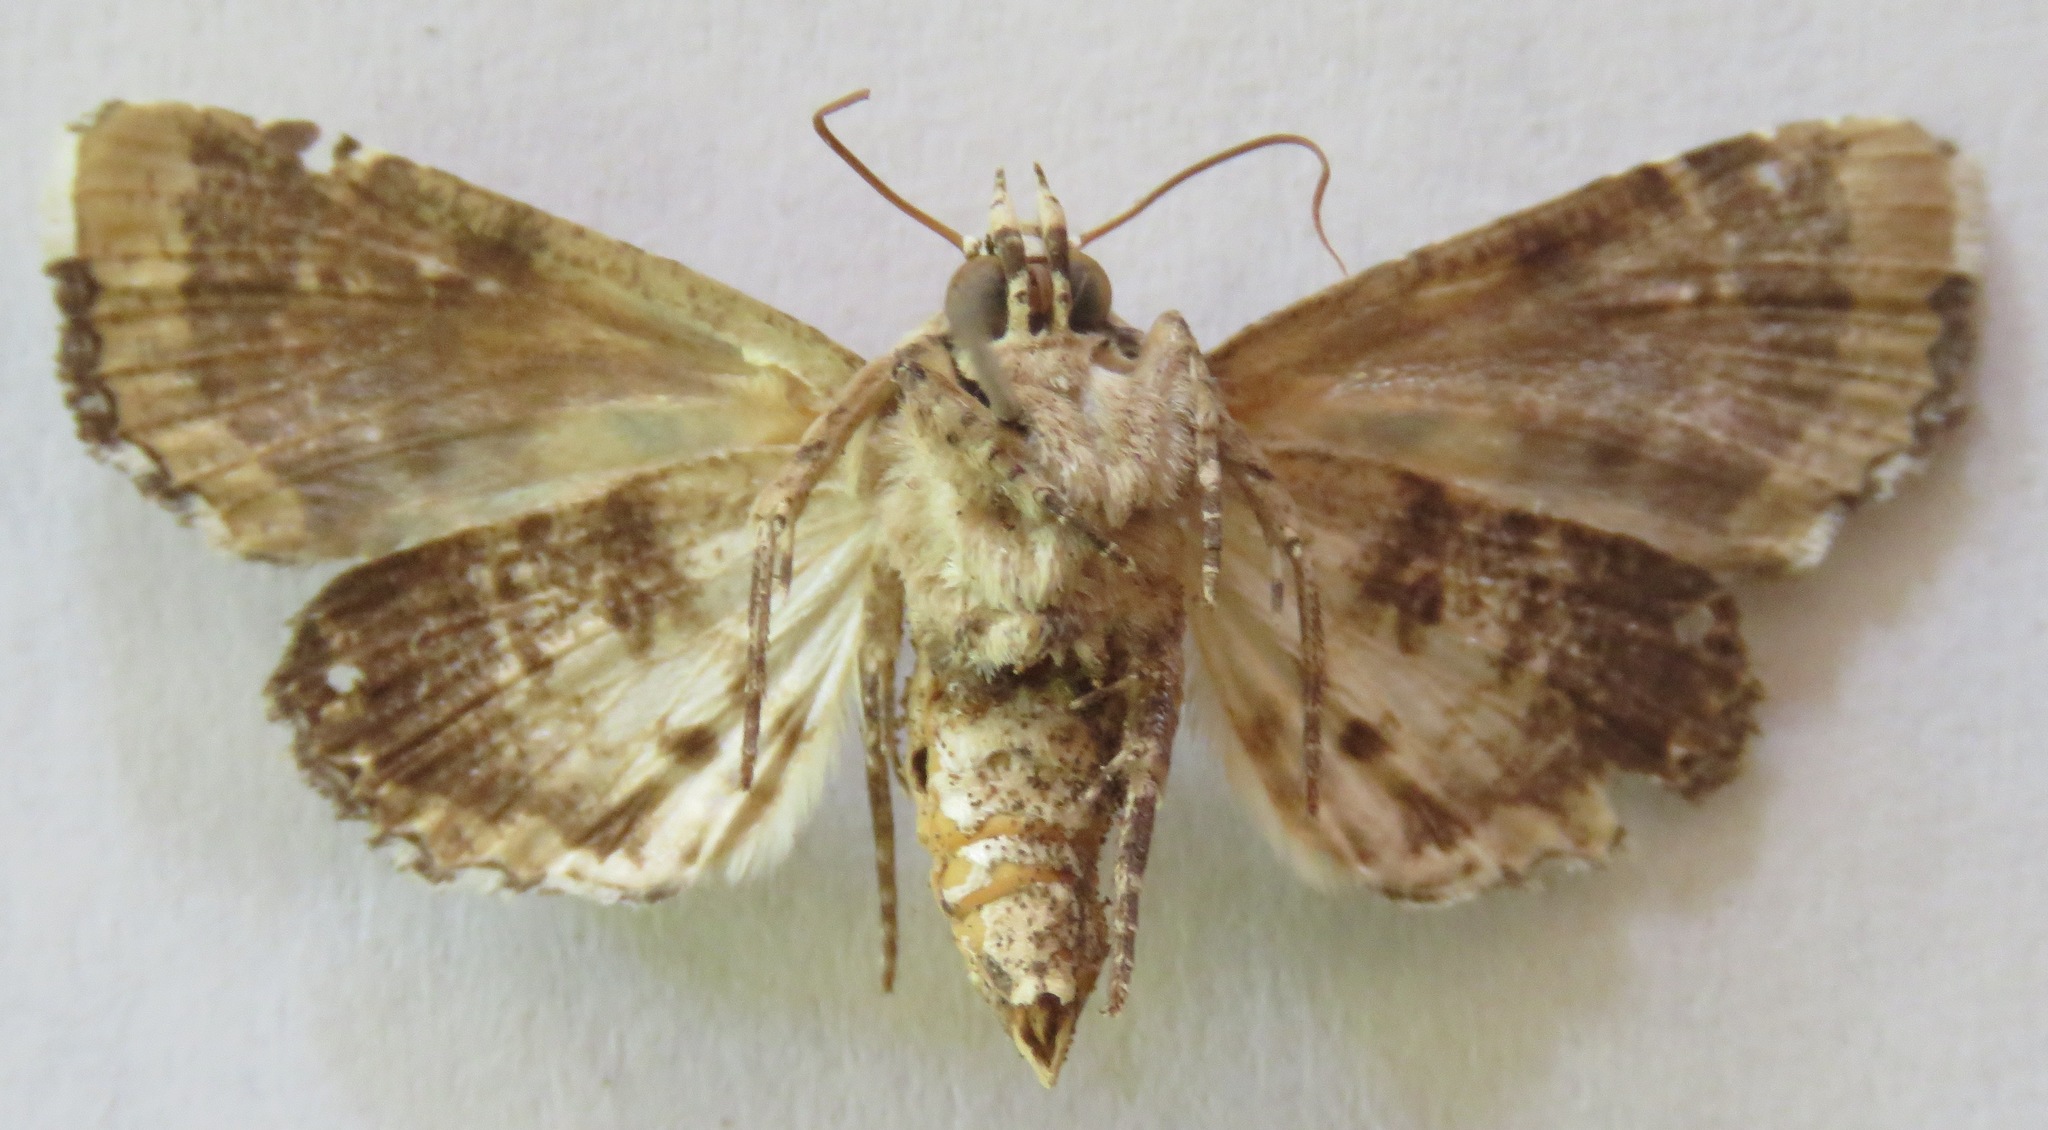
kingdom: Animalia
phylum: Arthropoda
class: Insecta
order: Lepidoptera
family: Noctuidae
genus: Heterochroma
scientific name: Heterochroma hypatia
